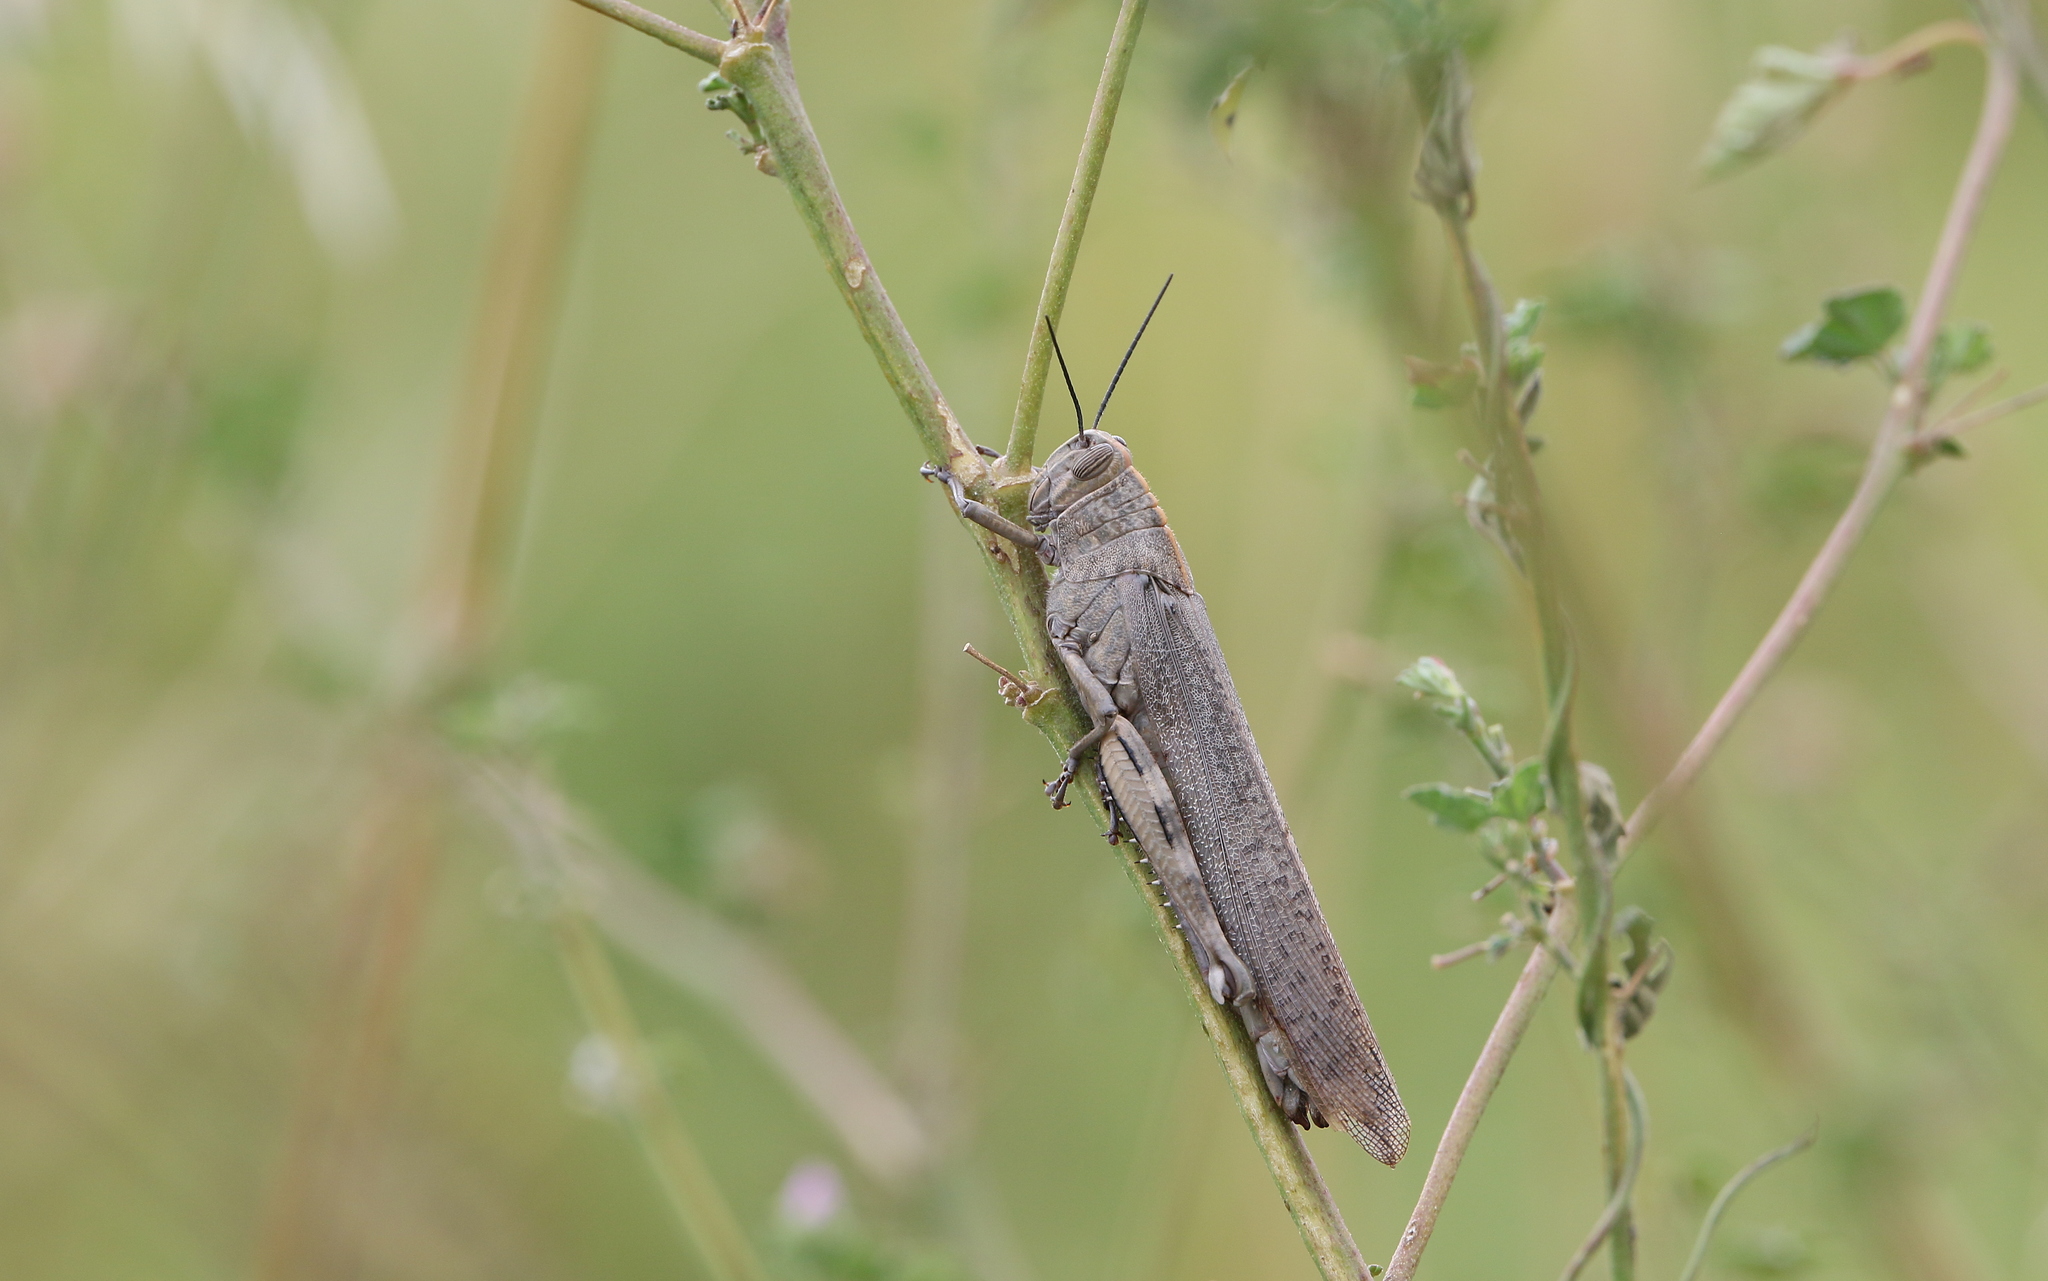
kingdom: Animalia
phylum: Arthropoda
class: Insecta
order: Orthoptera
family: Acrididae
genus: Anacridium
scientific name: Anacridium aegyptium
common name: Egyptian grasshopper
